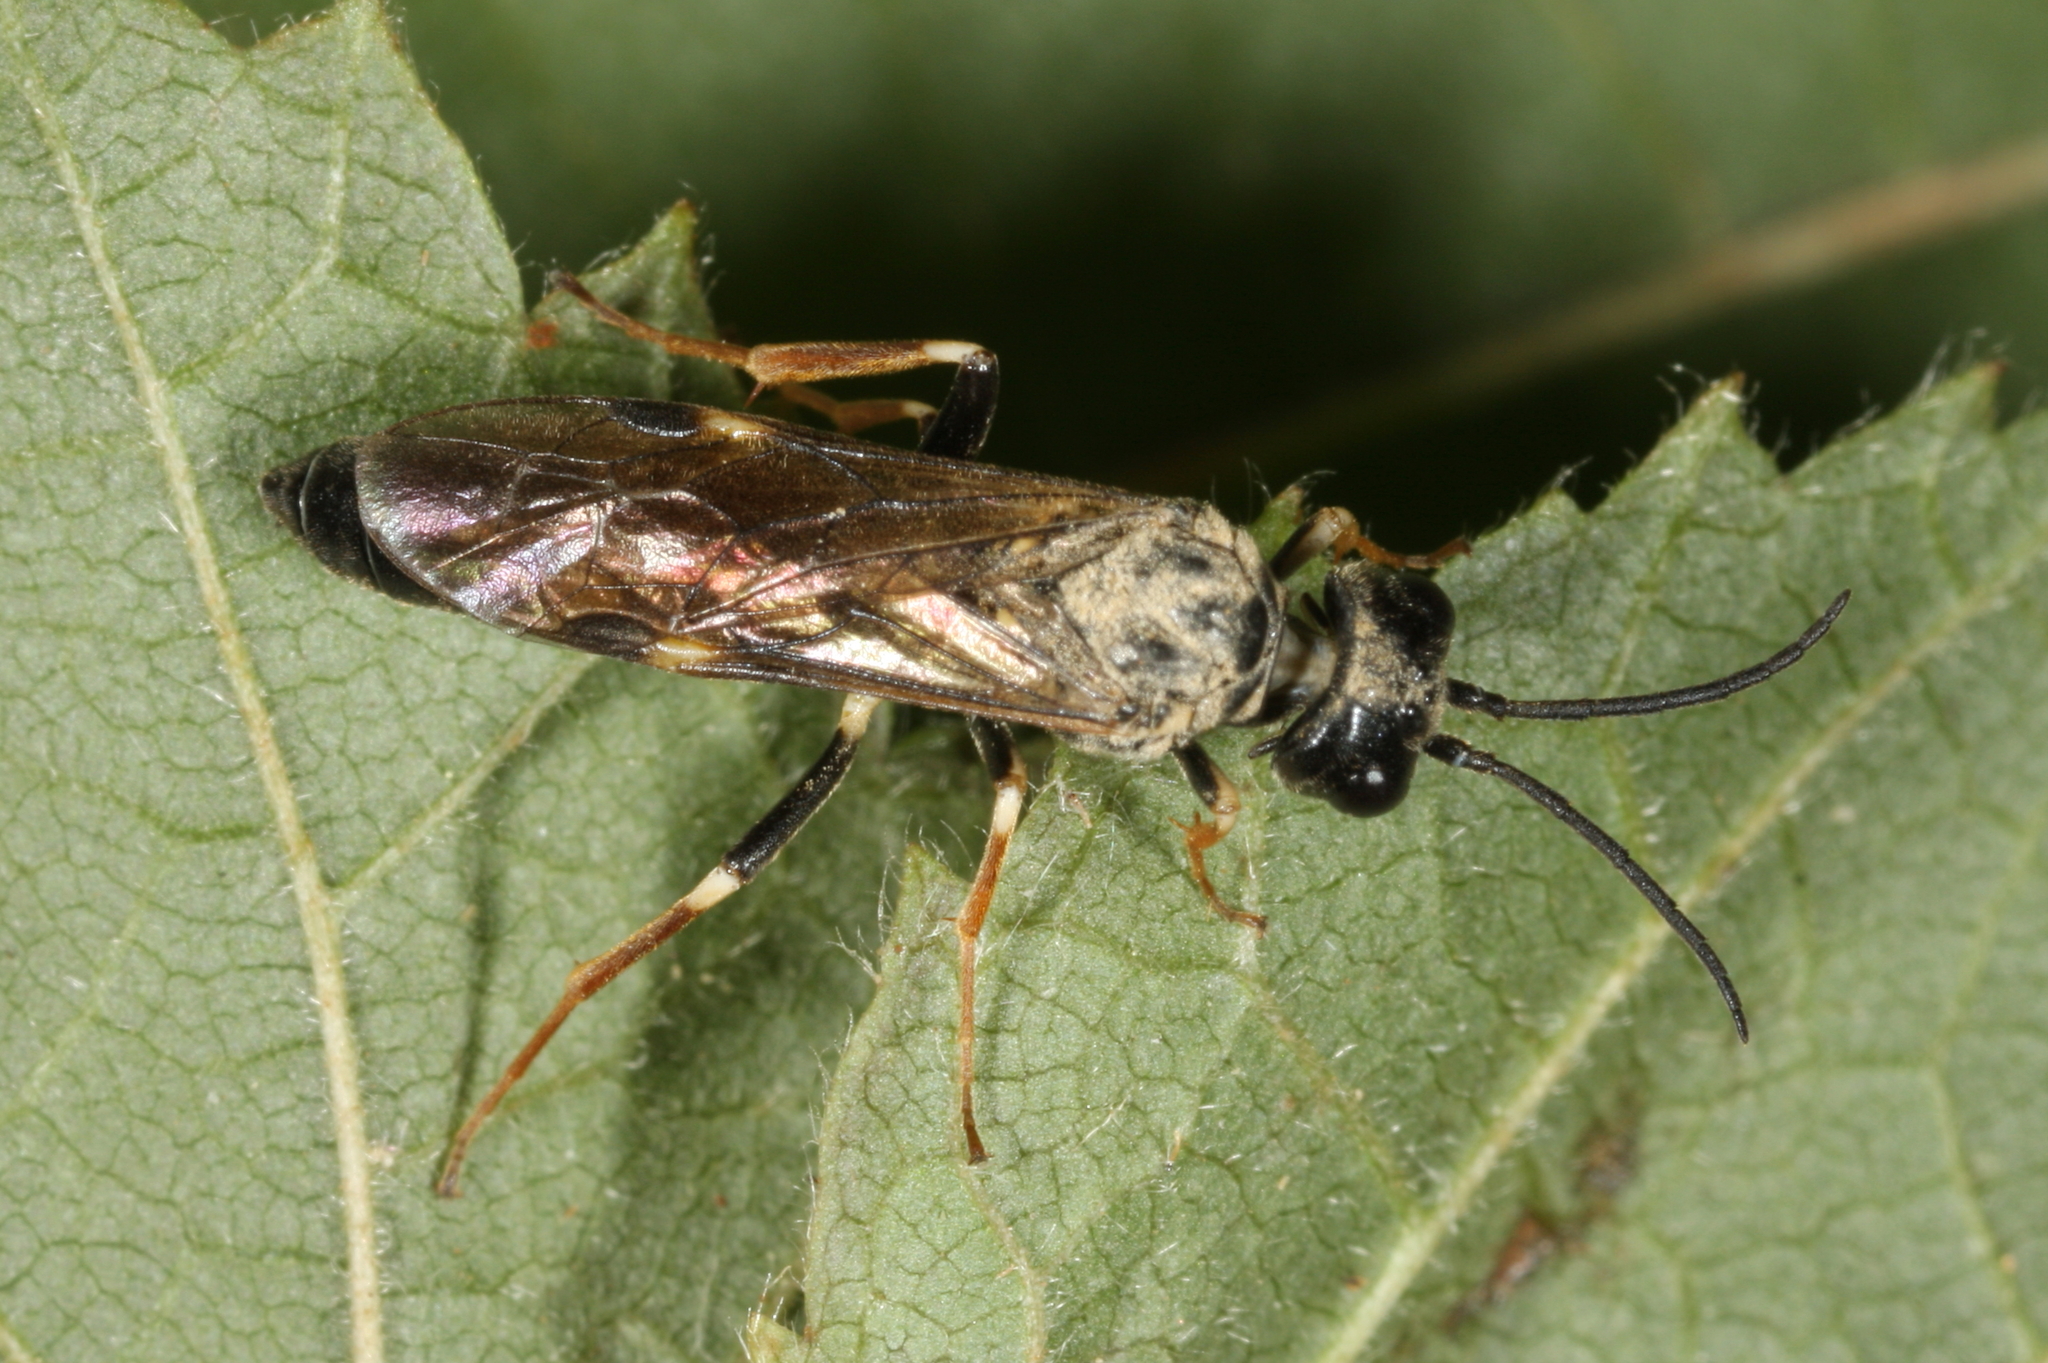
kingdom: Animalia
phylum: Arthropoda
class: Insecta
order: Hymenoptera
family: Tenthredinidae
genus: Allantus
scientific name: Allantus cinctus
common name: Curled rose sawfly
